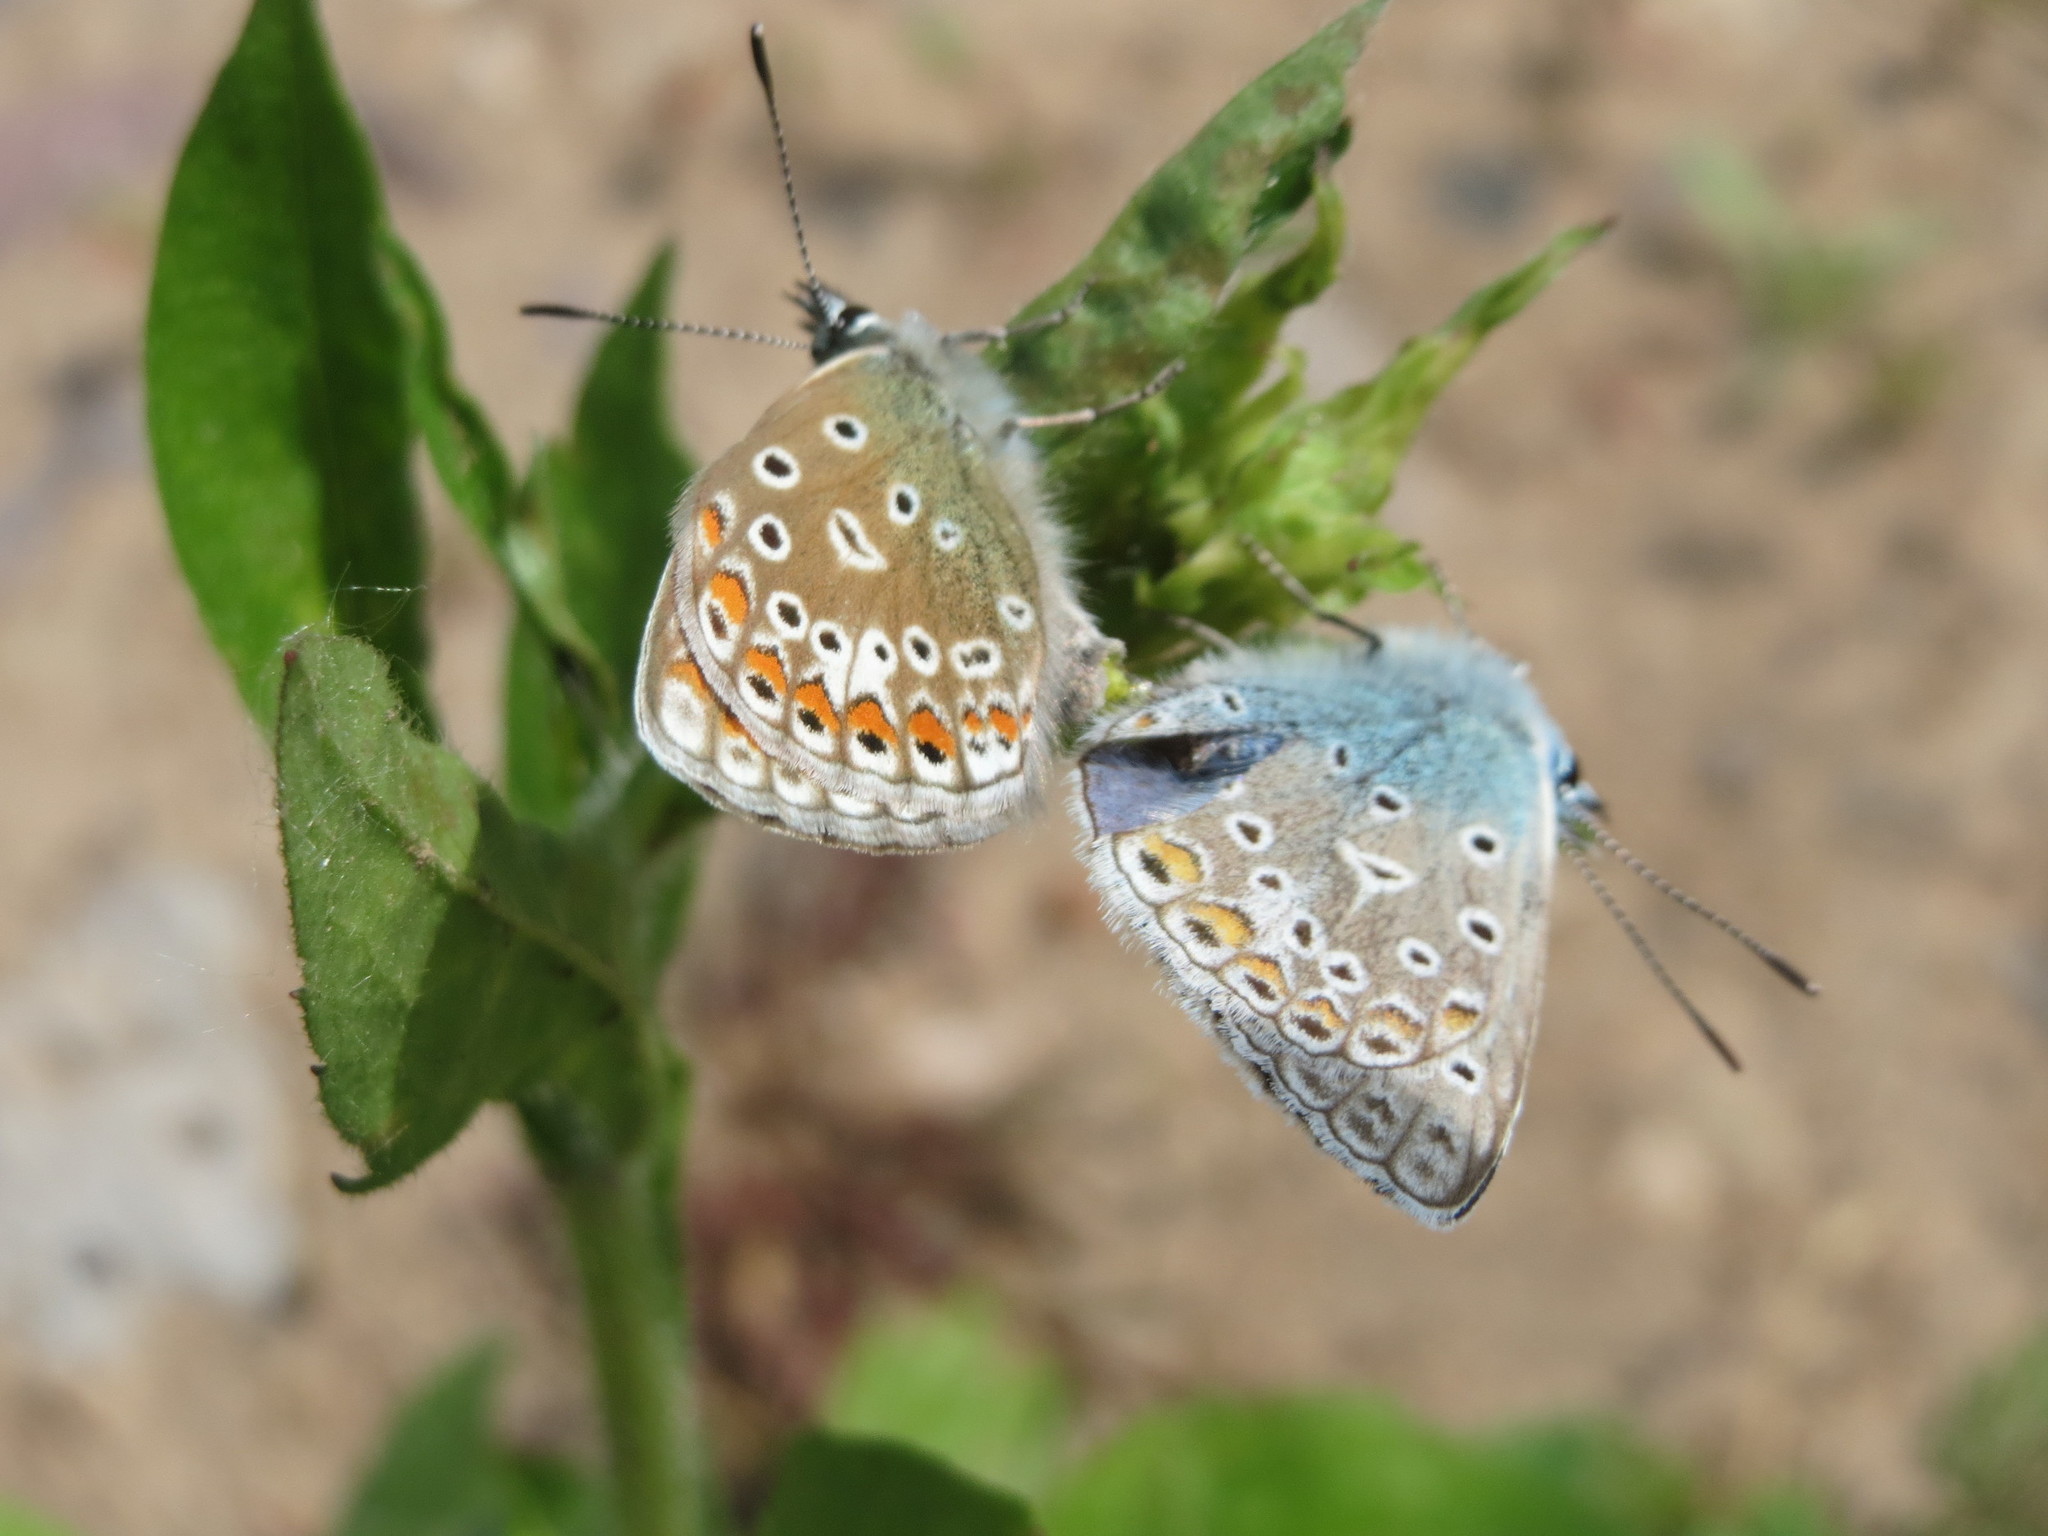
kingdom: Animalia
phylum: Arthropoda
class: Insecta
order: Lepidoptera
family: Lycaenidae
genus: Polyommatus
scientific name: Polyommatus icarus
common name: Common blue
